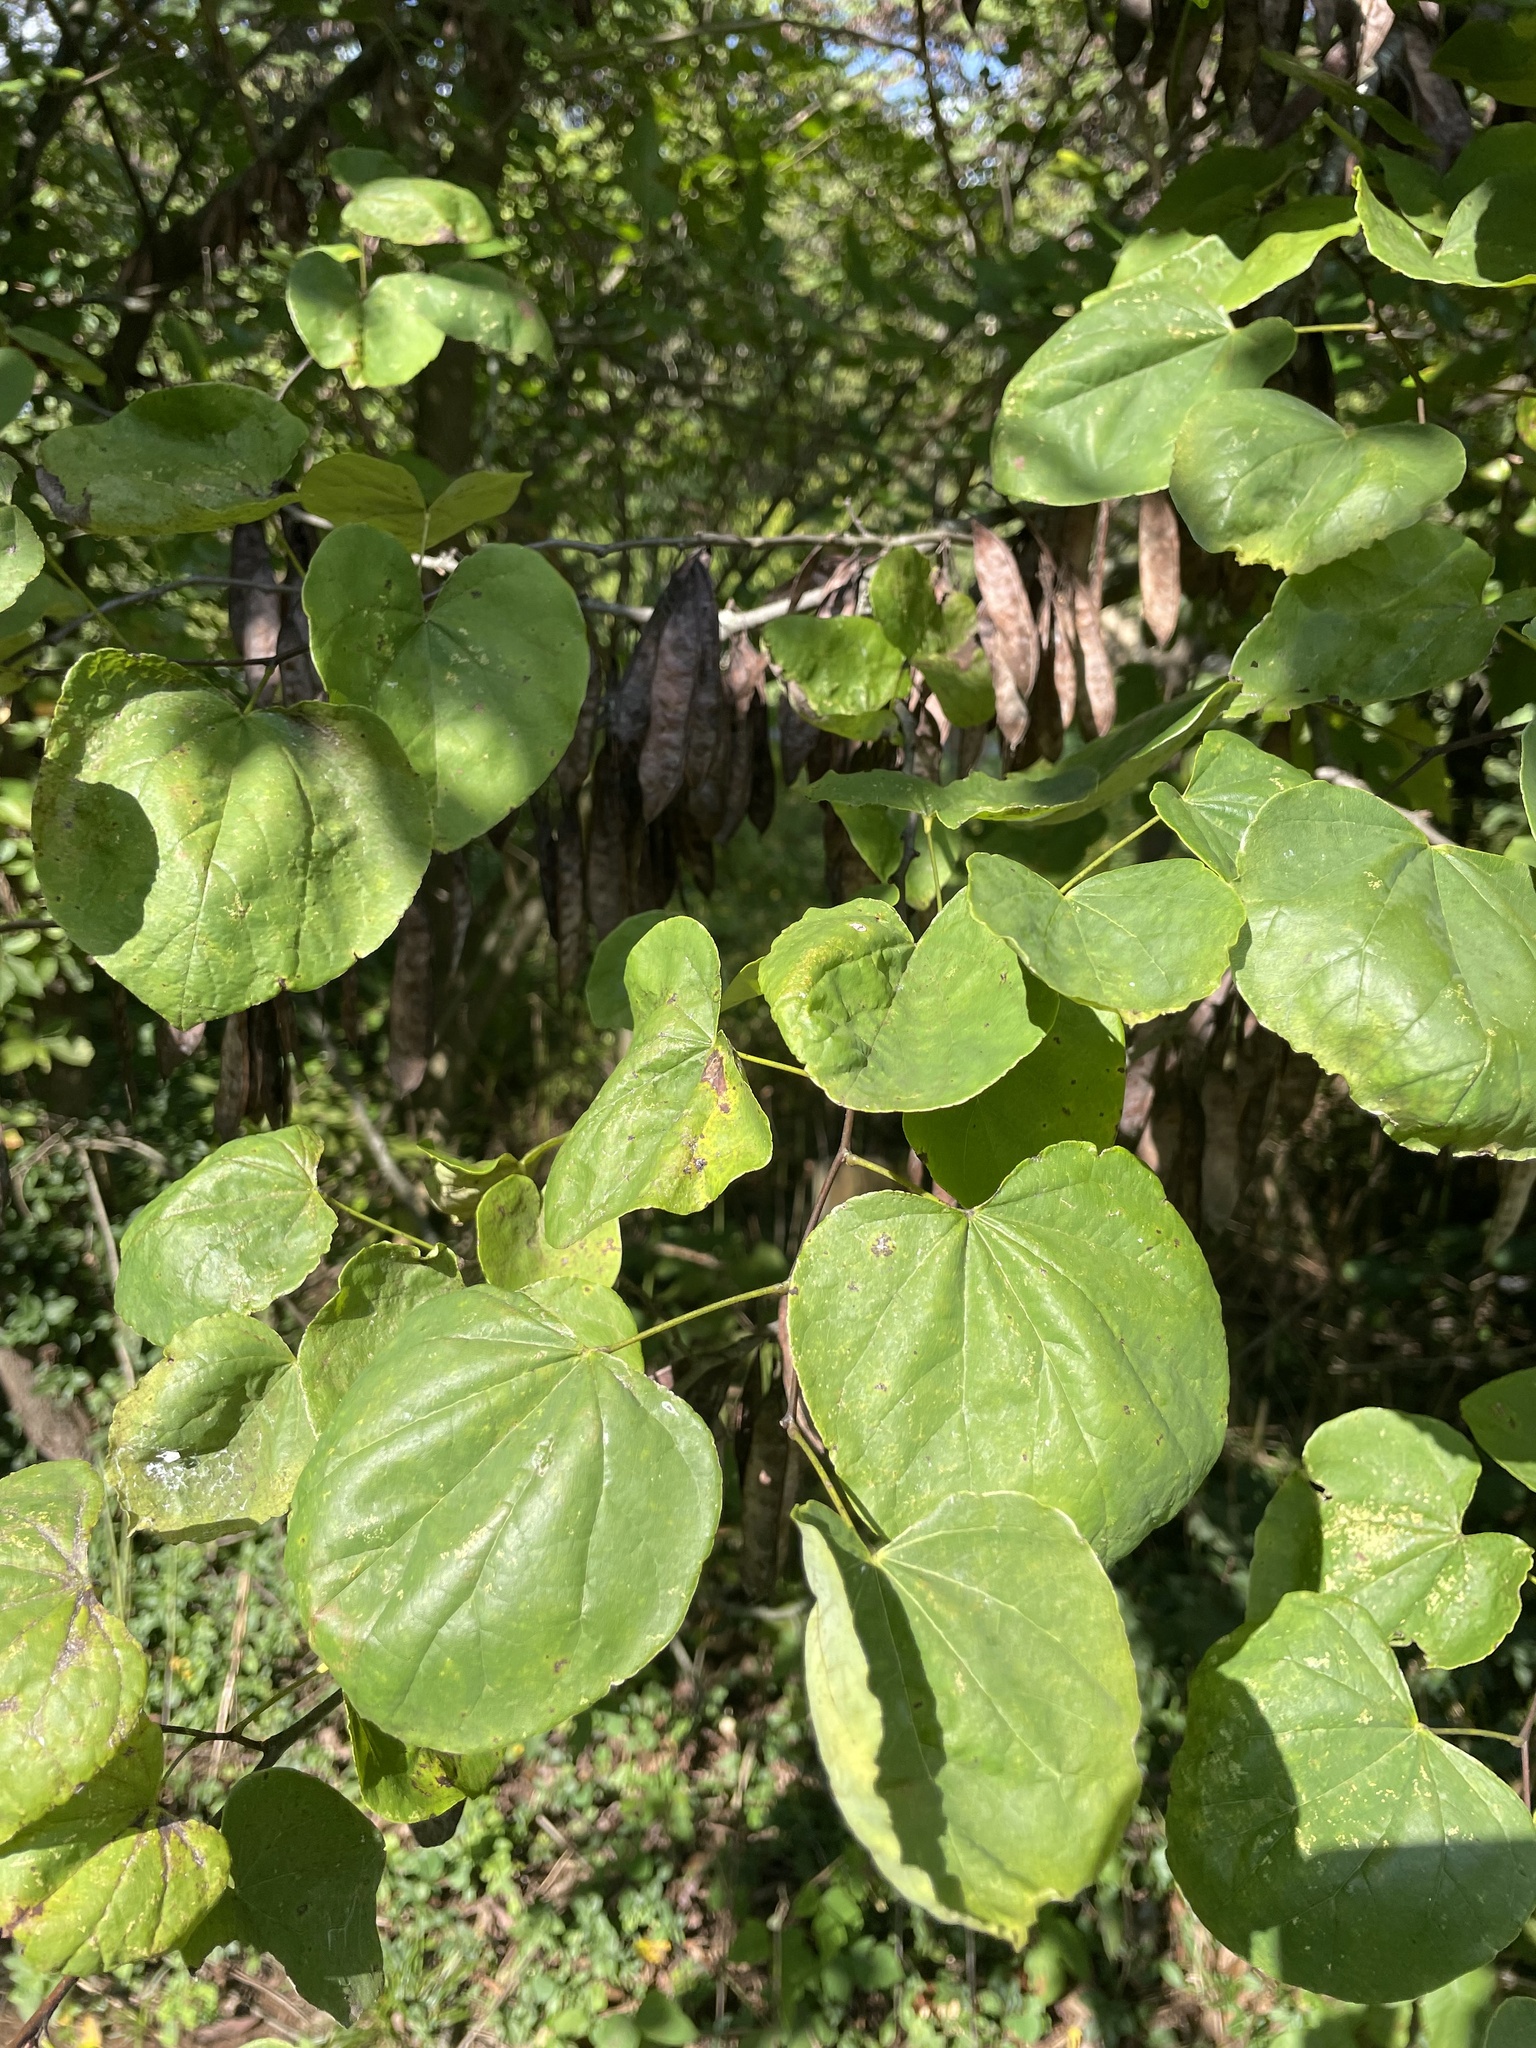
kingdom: Plantae
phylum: Tracheophyta
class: Magnoliopsida
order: Fabales
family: Fabaceae
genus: Cercis
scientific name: Cercis canadensis
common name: Eastern redbud
